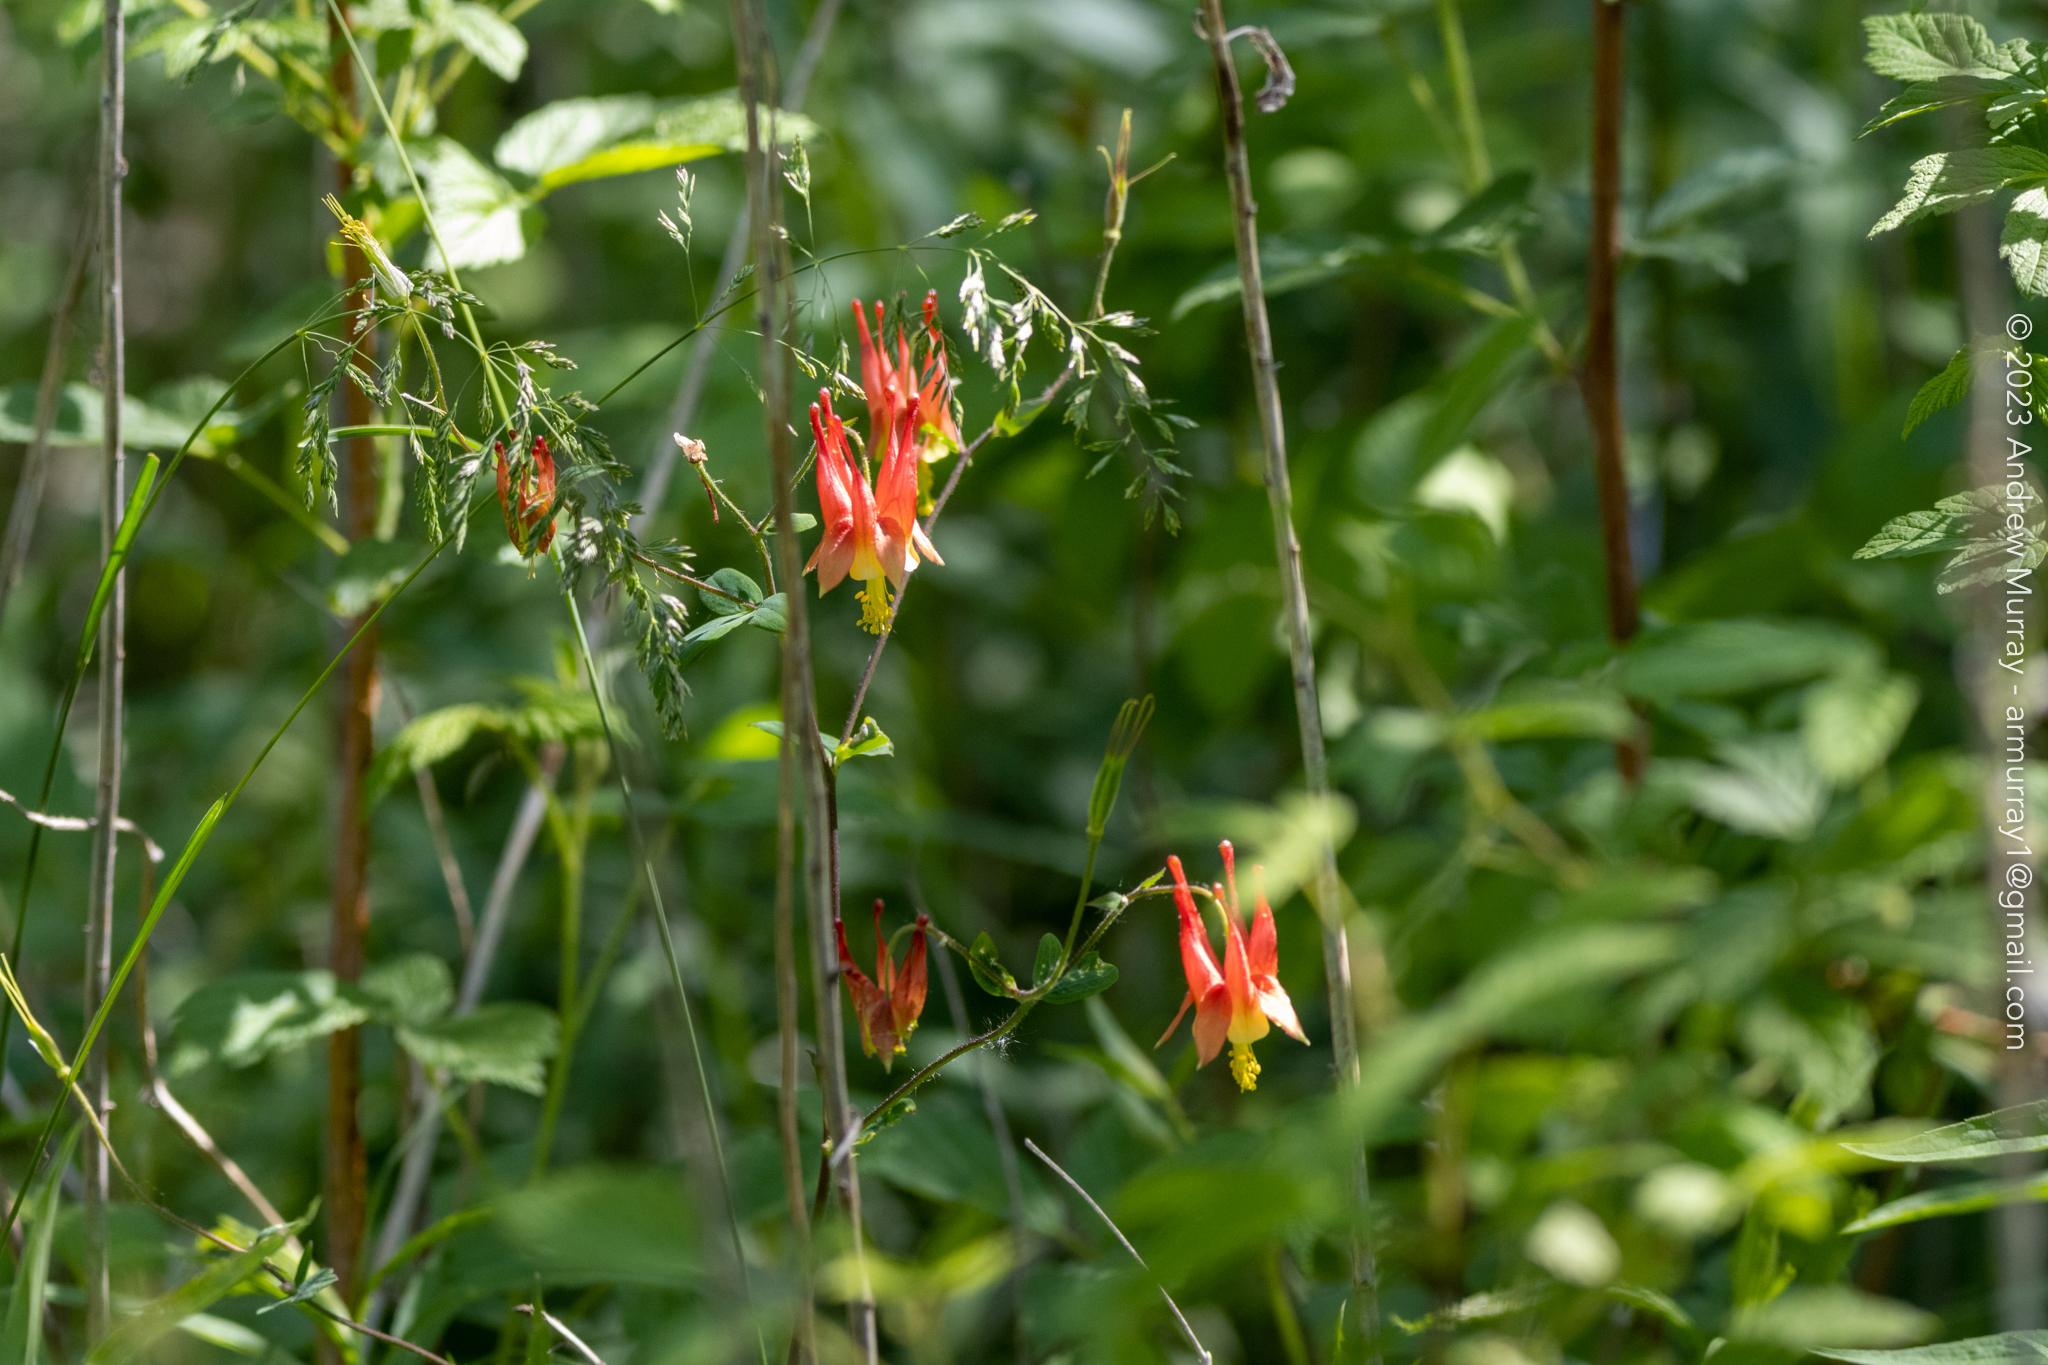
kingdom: Plantae
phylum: Tracheophyta
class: Magnoliopsida
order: Ranunculales
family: Ranunculaceae
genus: Aquilegia
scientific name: Aquilegia canadensis
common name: American columbine
